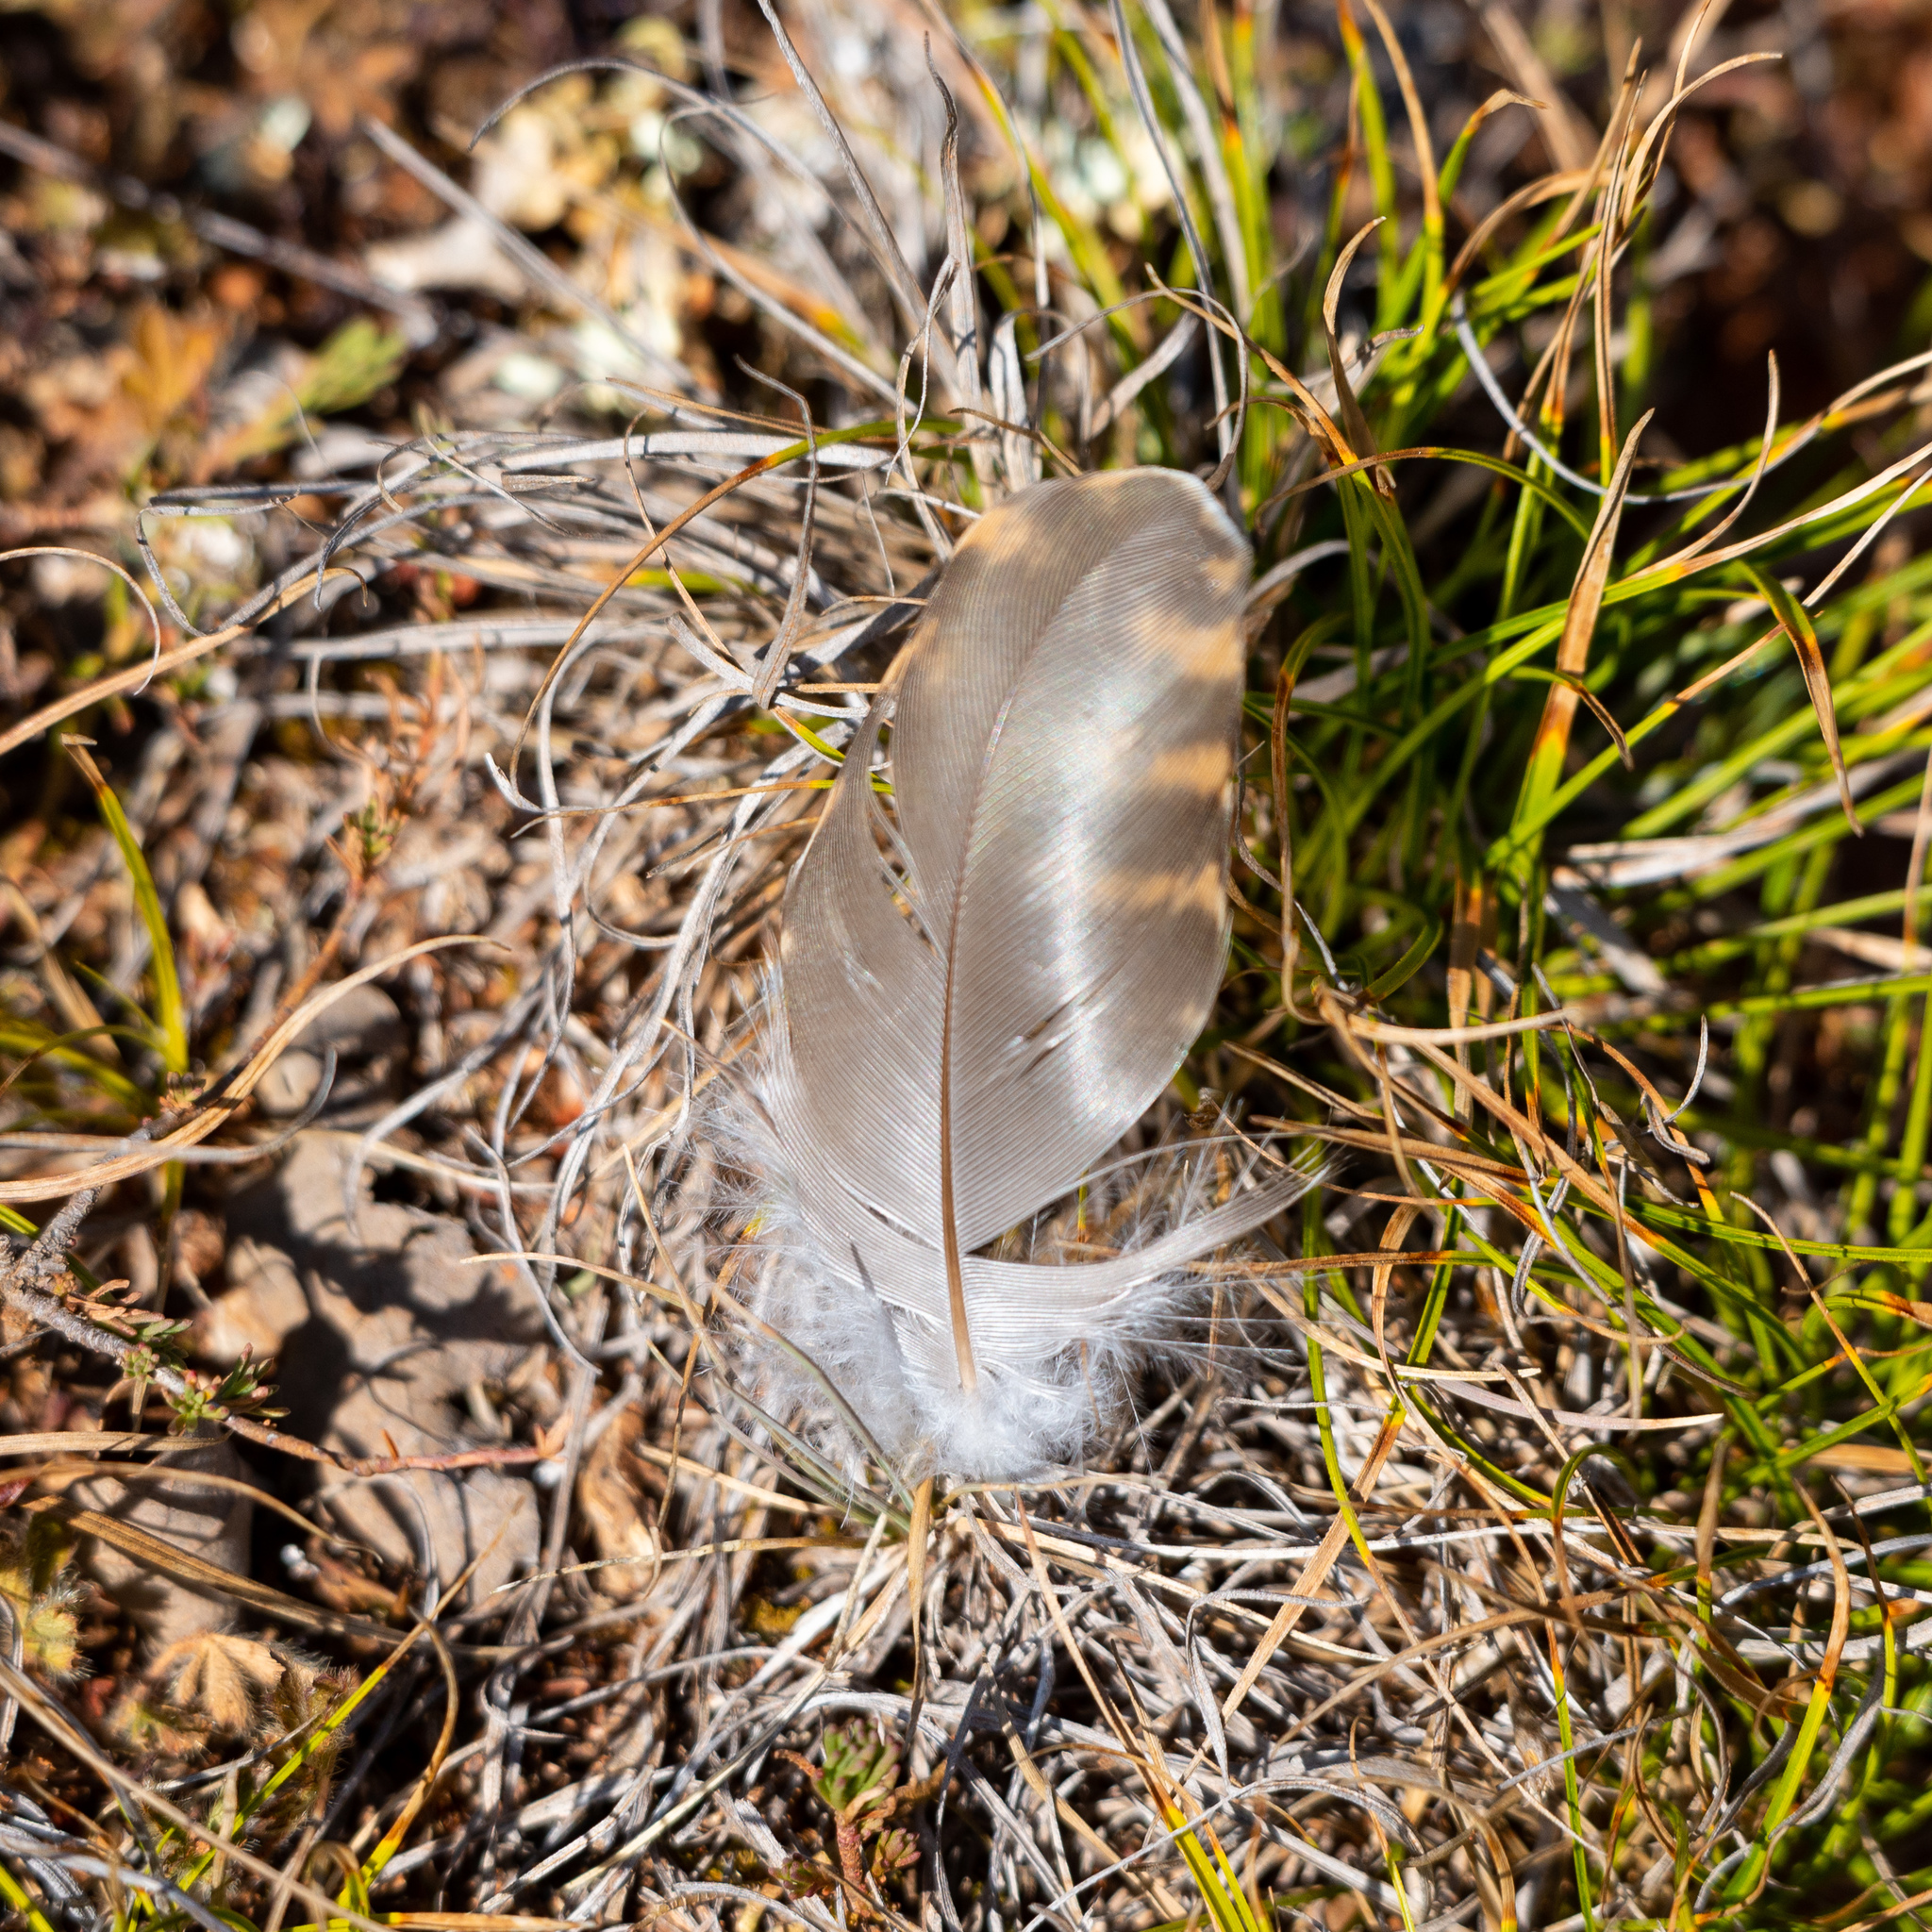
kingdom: Animalia
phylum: Chordata
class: Aves
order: Cuculiformes
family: Cuculidae
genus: Cuculus
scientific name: Cuculus canorus
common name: Common cuckoo
